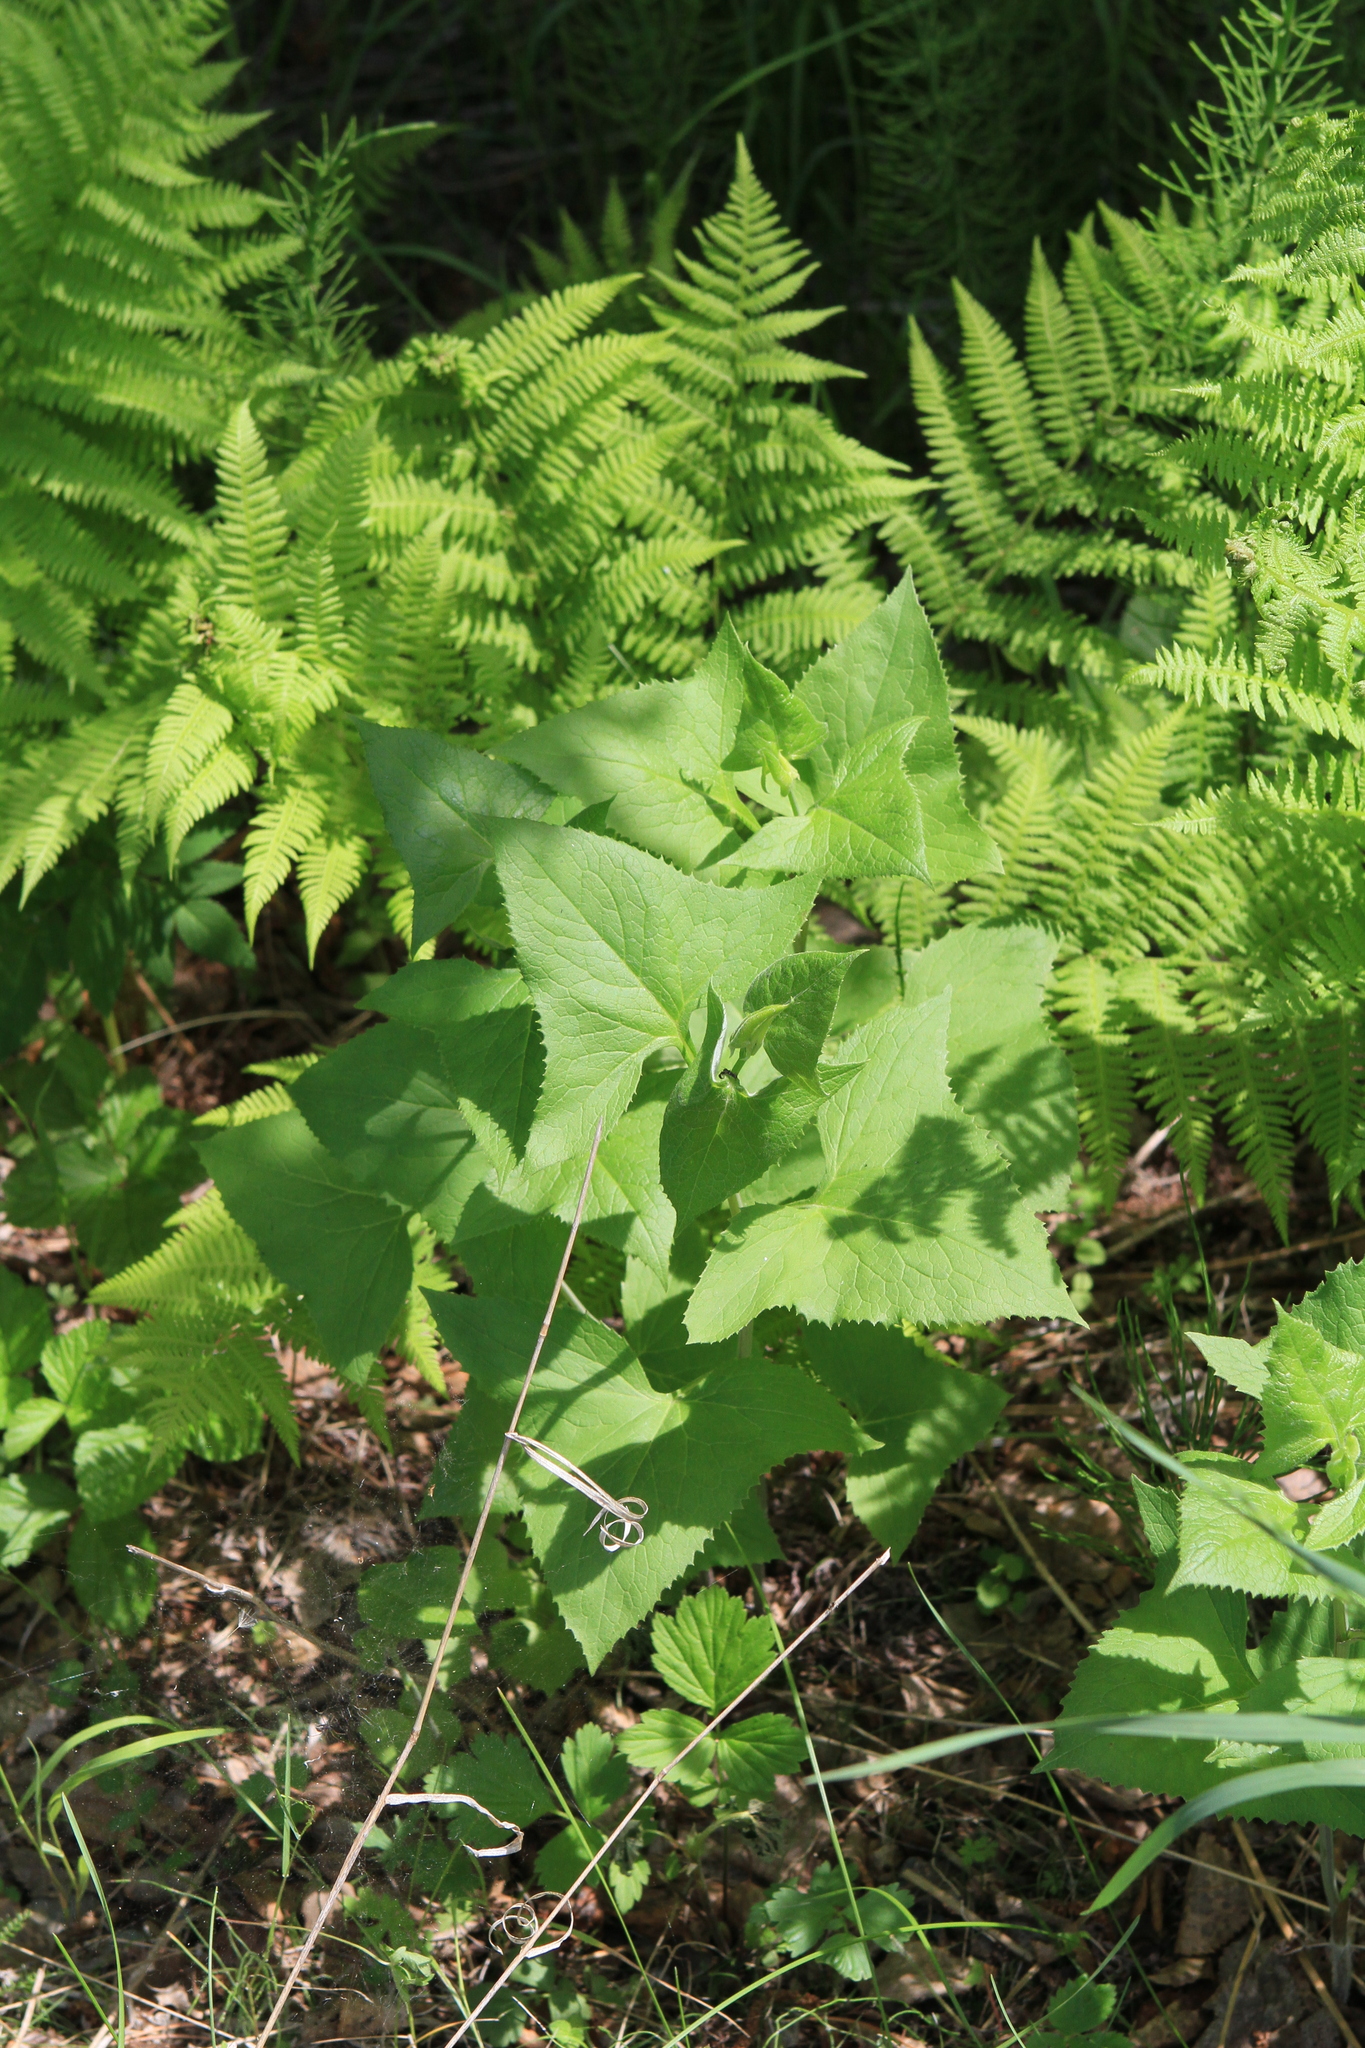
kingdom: Plantae
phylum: Tracheophyta
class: Magnoliopsida
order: Asterales
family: Asteraceae
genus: Parasenecio
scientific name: Parasenecio hastatus
